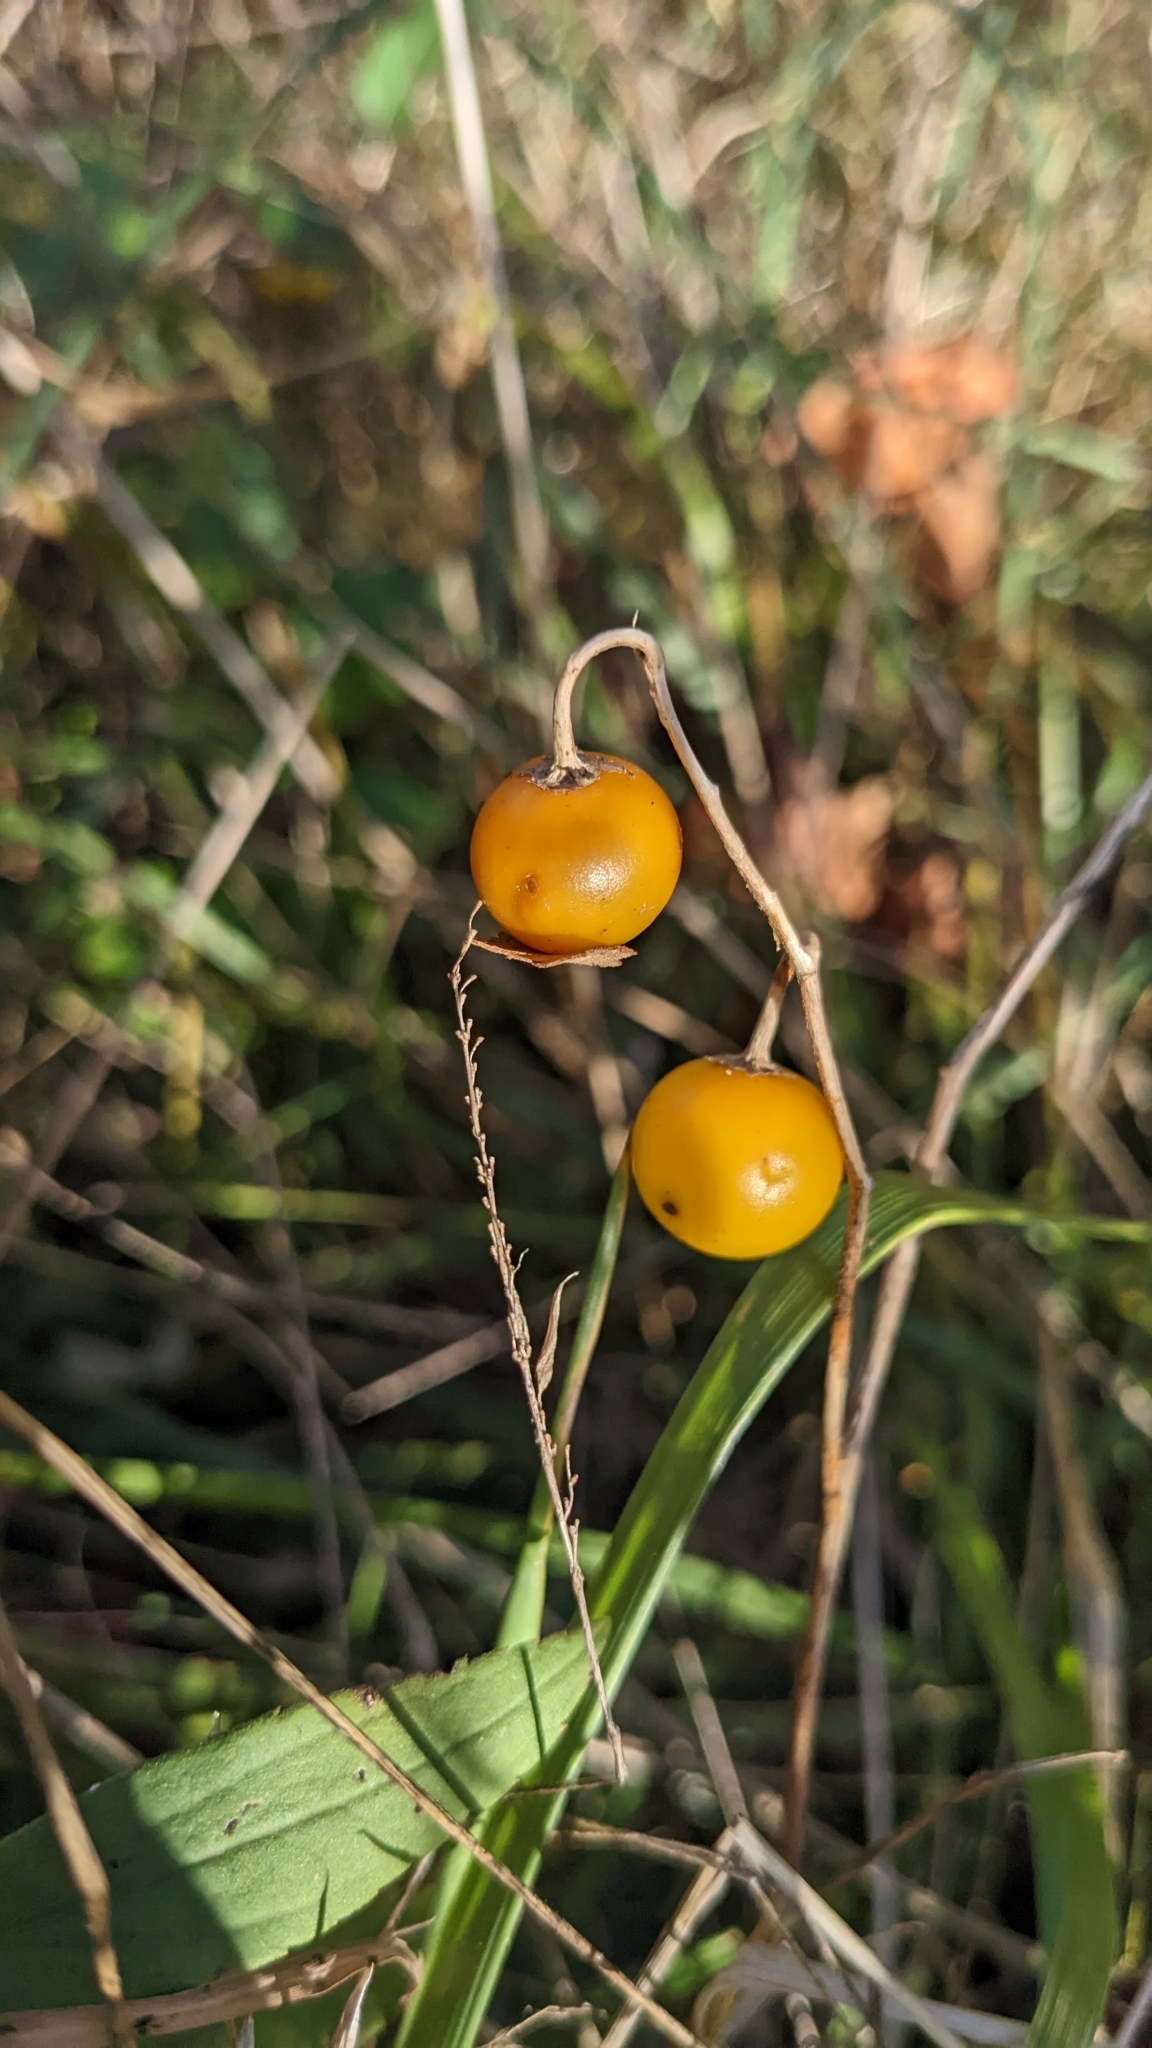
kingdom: Plantae
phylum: Tracheophyta
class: Magnoliopsida
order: Solanales
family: Solanaceae
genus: Solanum
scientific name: Solanum carolinense
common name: Horse-nettle
